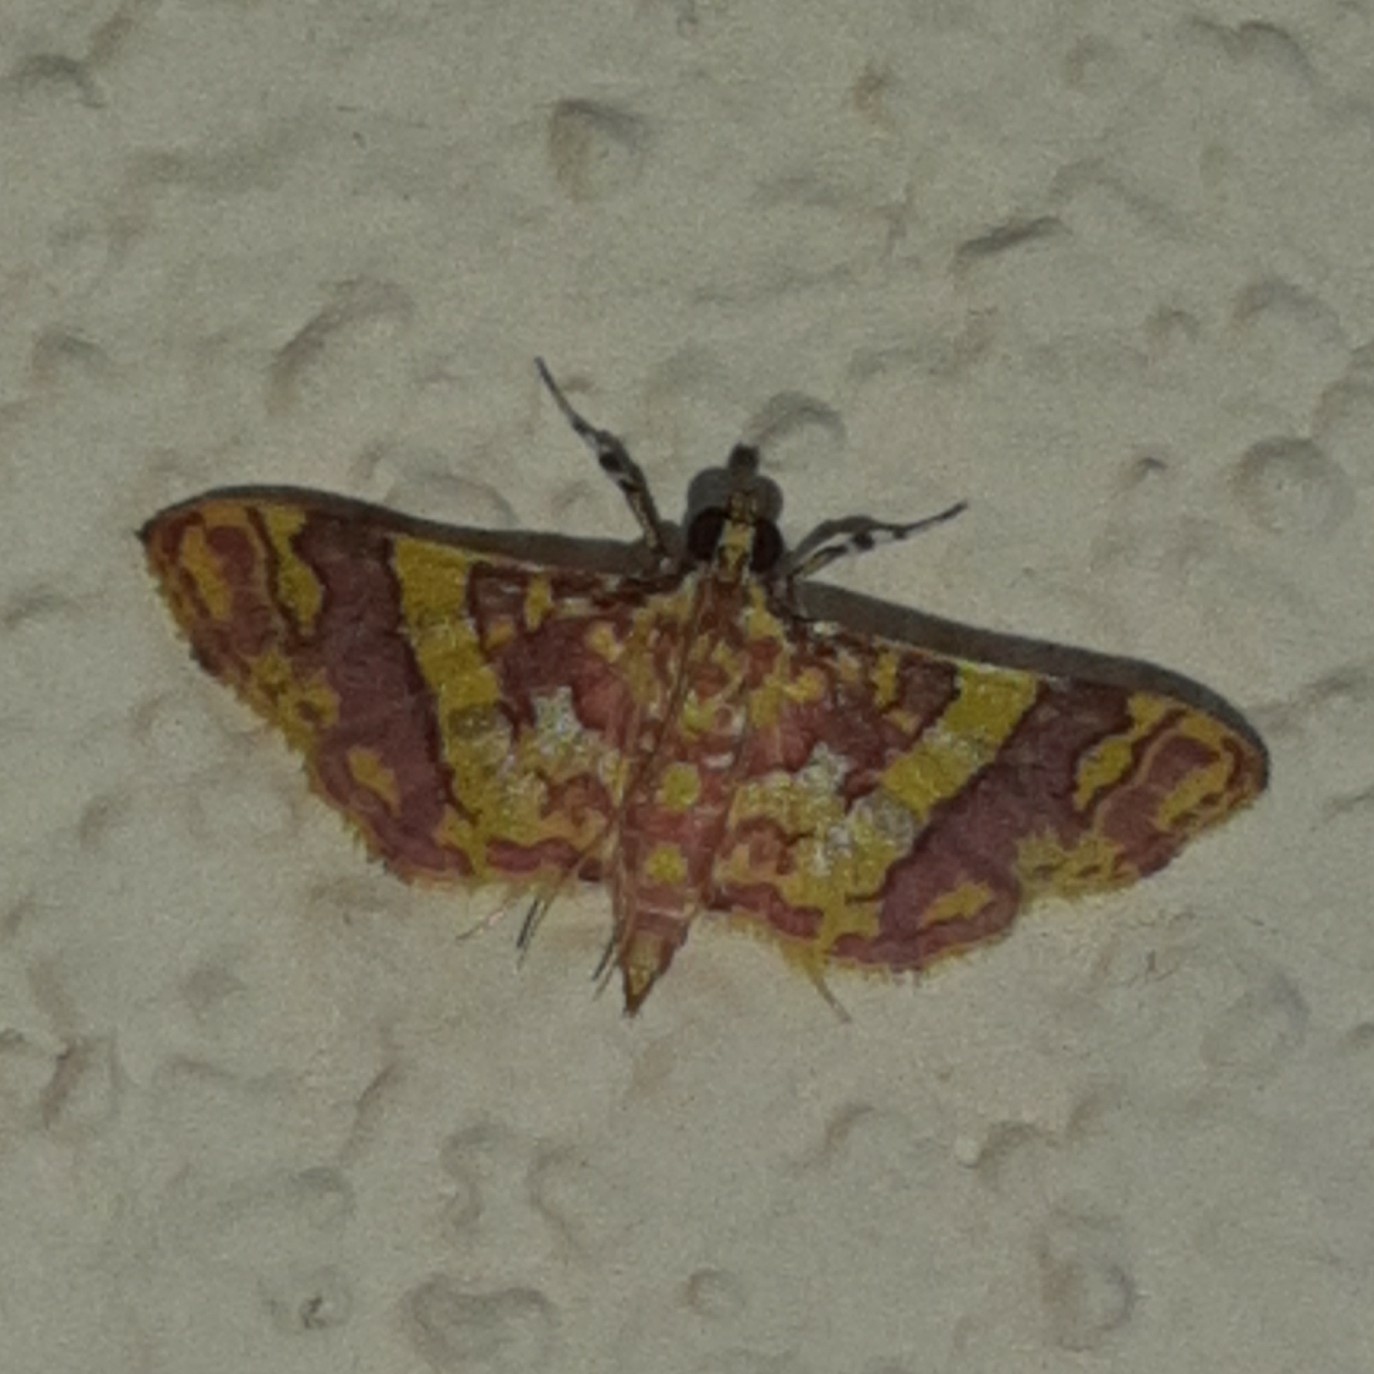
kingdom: Animalia
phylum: Arthropoda
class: Insecta
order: Lepidoptera
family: Crambidae
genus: Trithyris
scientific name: Trithyris Prenesta rubrocinctalis
